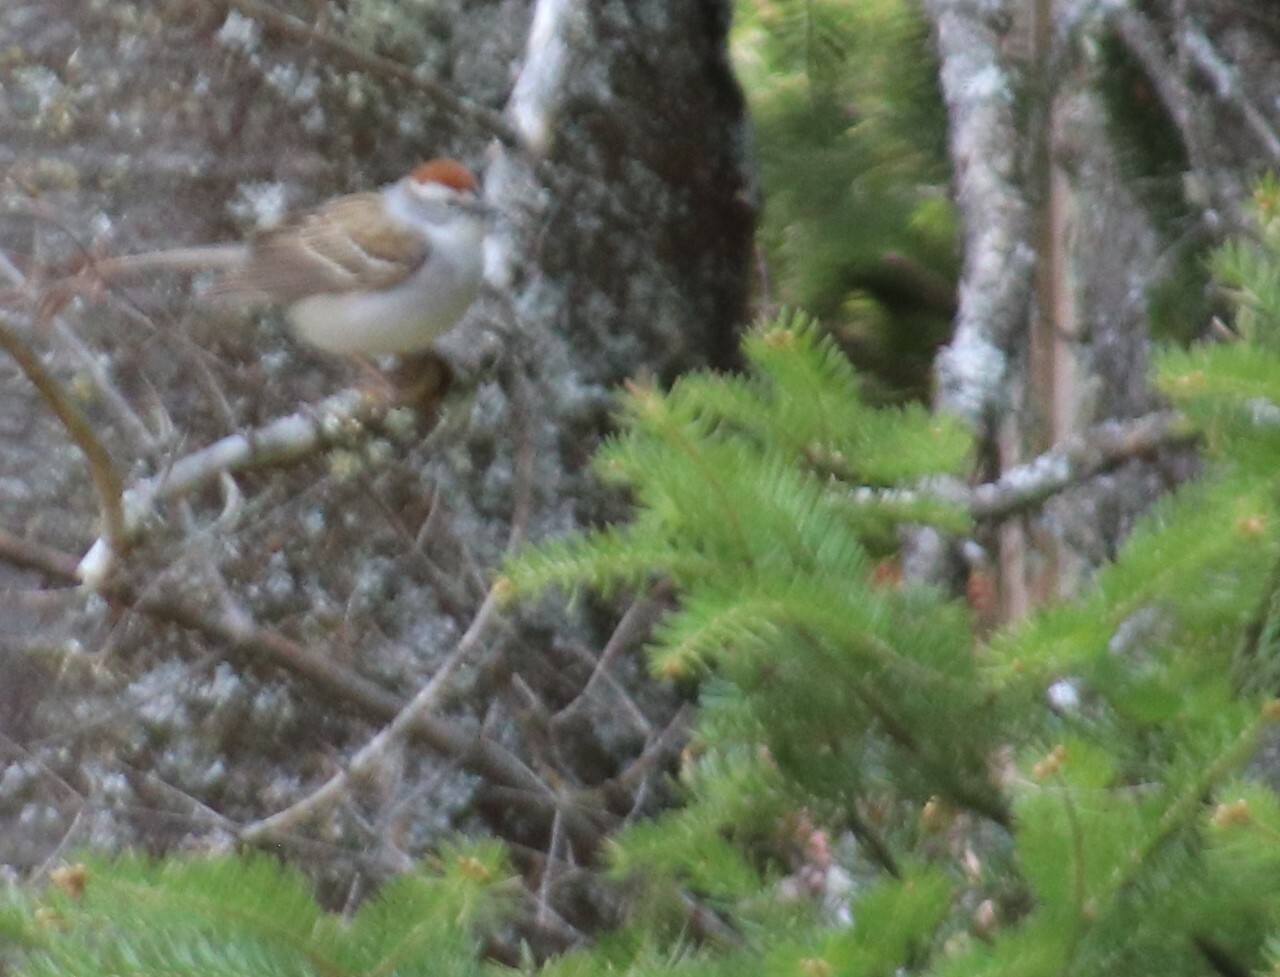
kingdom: Animalia
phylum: Chordata
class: Aves
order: Passeriformes
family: Passerellidae
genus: Spizella
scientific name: Spizella passerina
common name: Chipping sparrow
